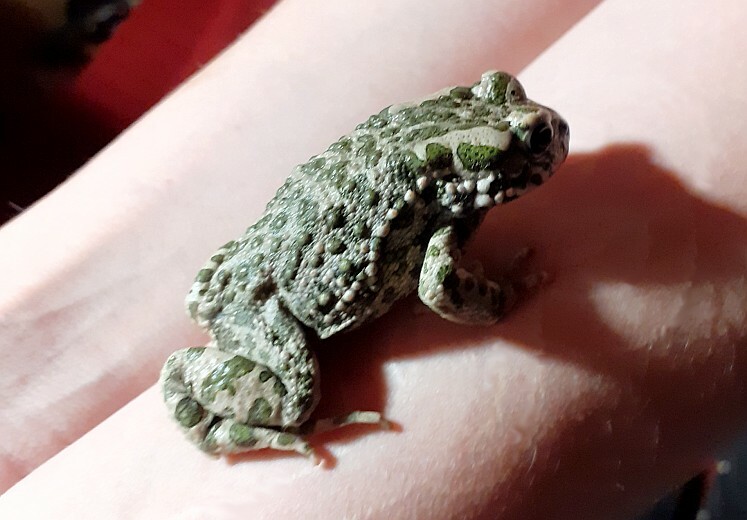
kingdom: Animalia
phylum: Chordata
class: Amphibia
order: Anura
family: Bufonidae
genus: Bufotes
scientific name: Bufotes viridis
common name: European green toad
